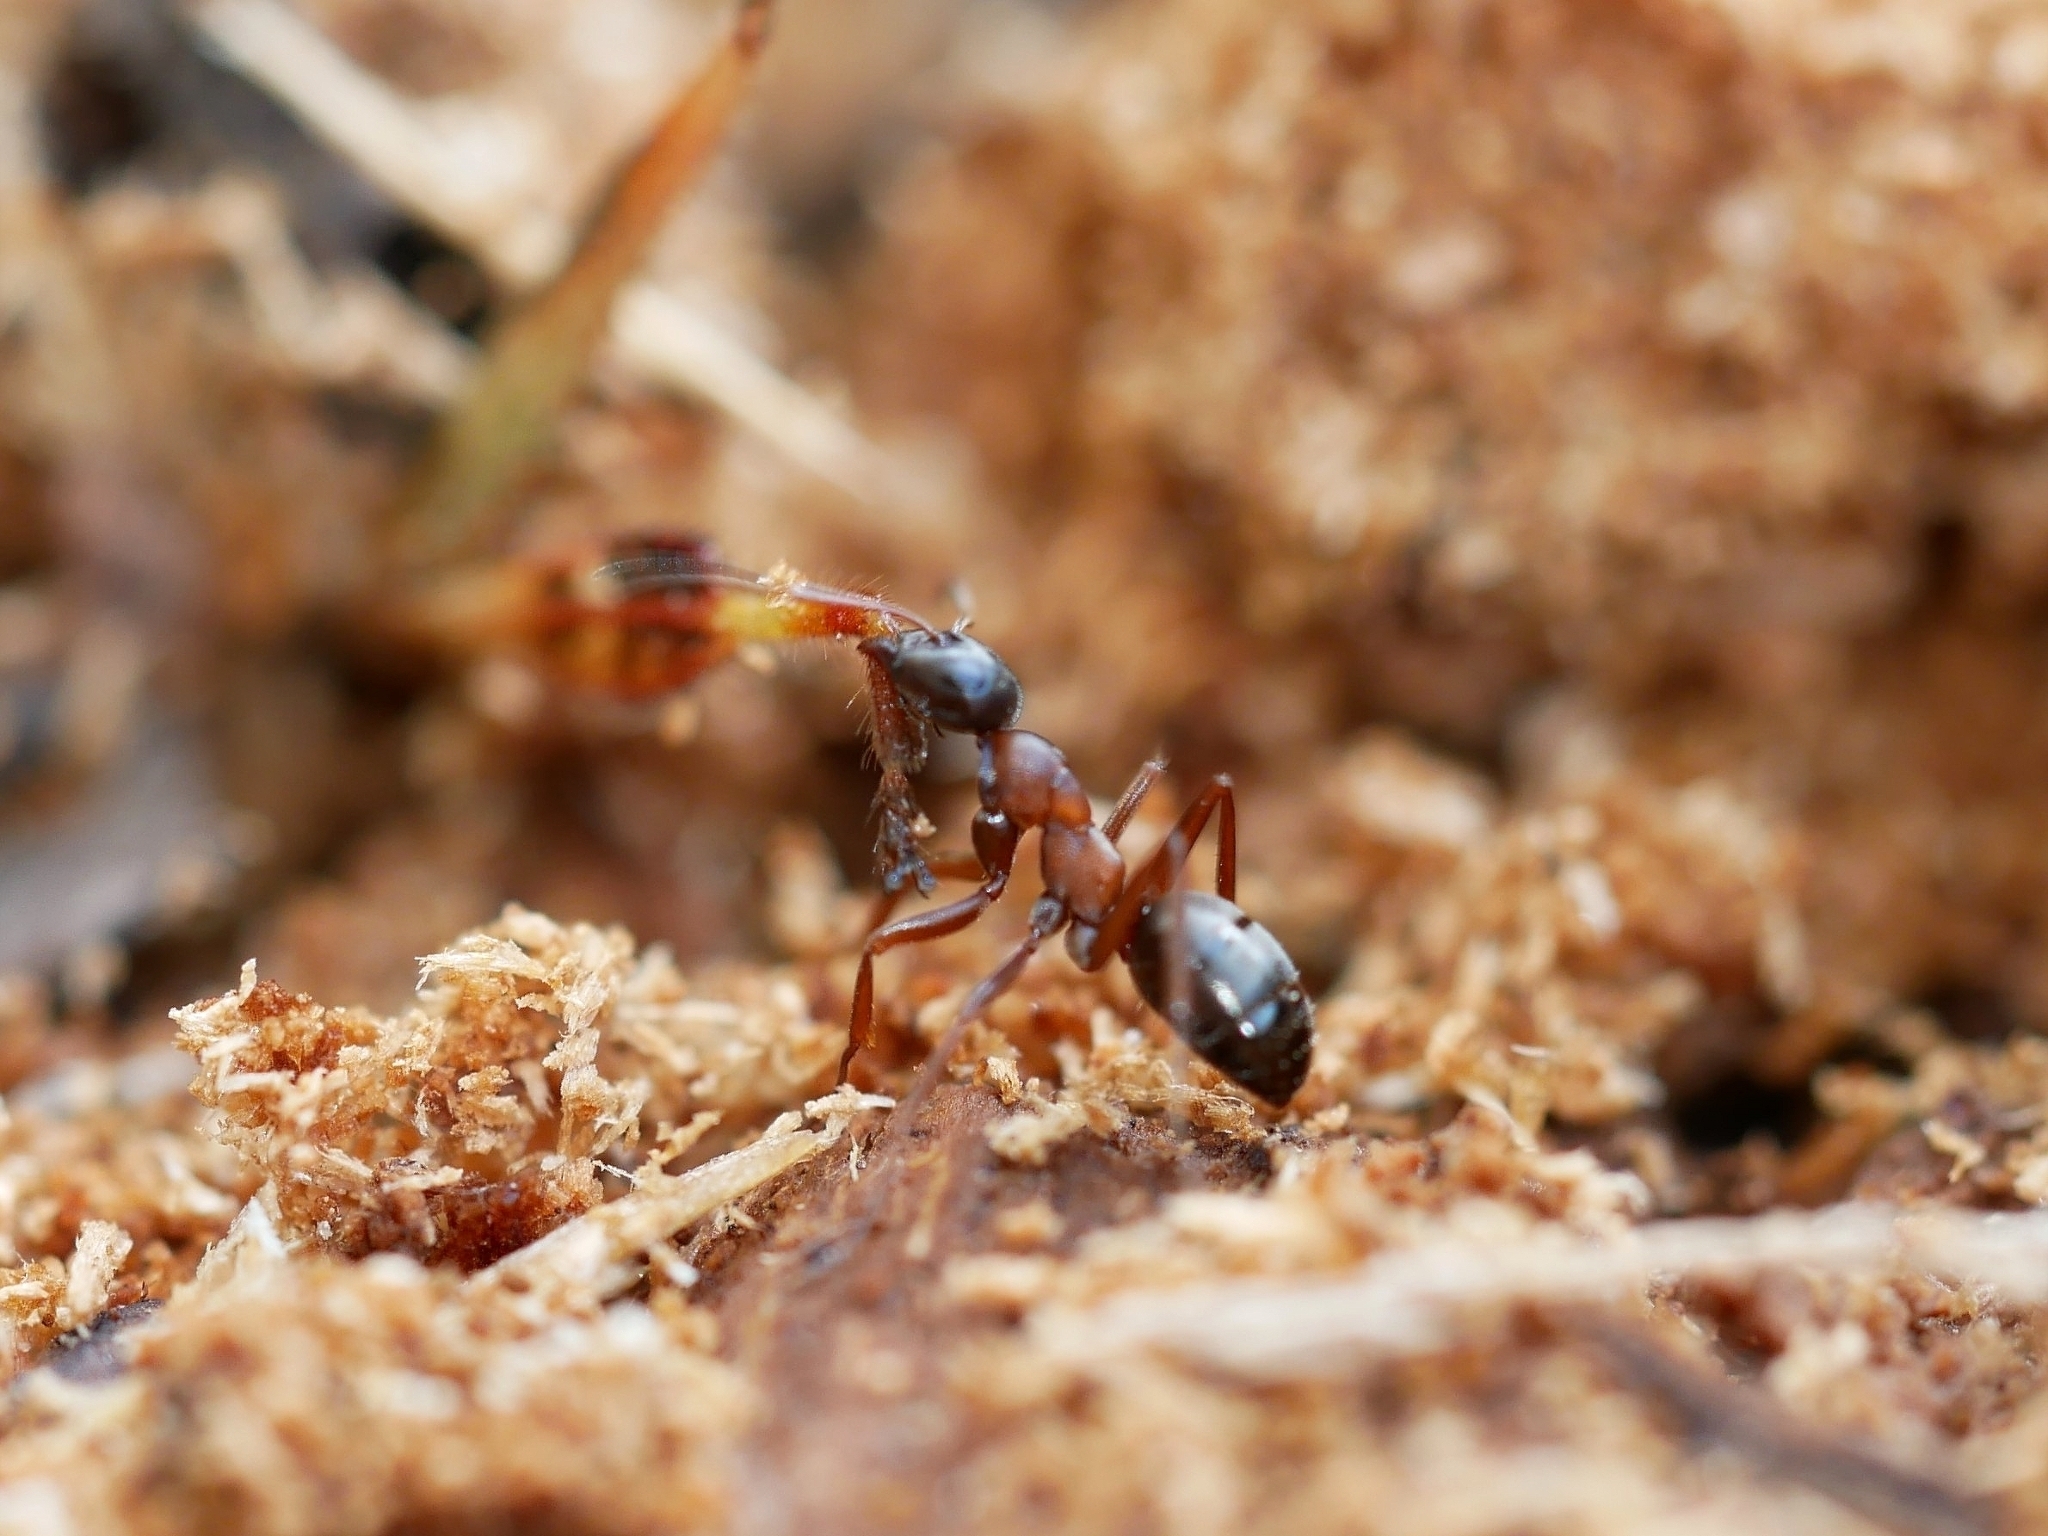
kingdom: Animalia
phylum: Arthropoda
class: Insecta
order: Hymenoptera
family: Formicidae
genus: Formica
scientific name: Formica neorufibarbis
